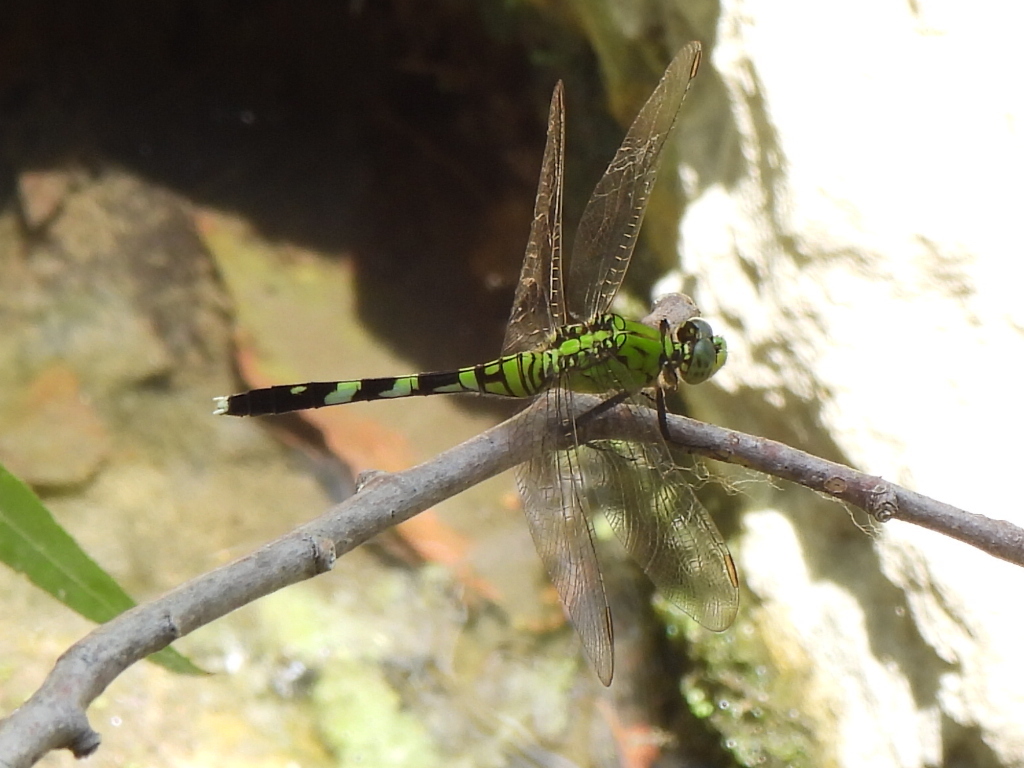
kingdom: Animalia
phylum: Arthropoda
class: Insecta
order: Odonata
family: Libellulidae
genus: Erythemis
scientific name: Erythemis simplicicollis
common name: Eastern pondhawk
